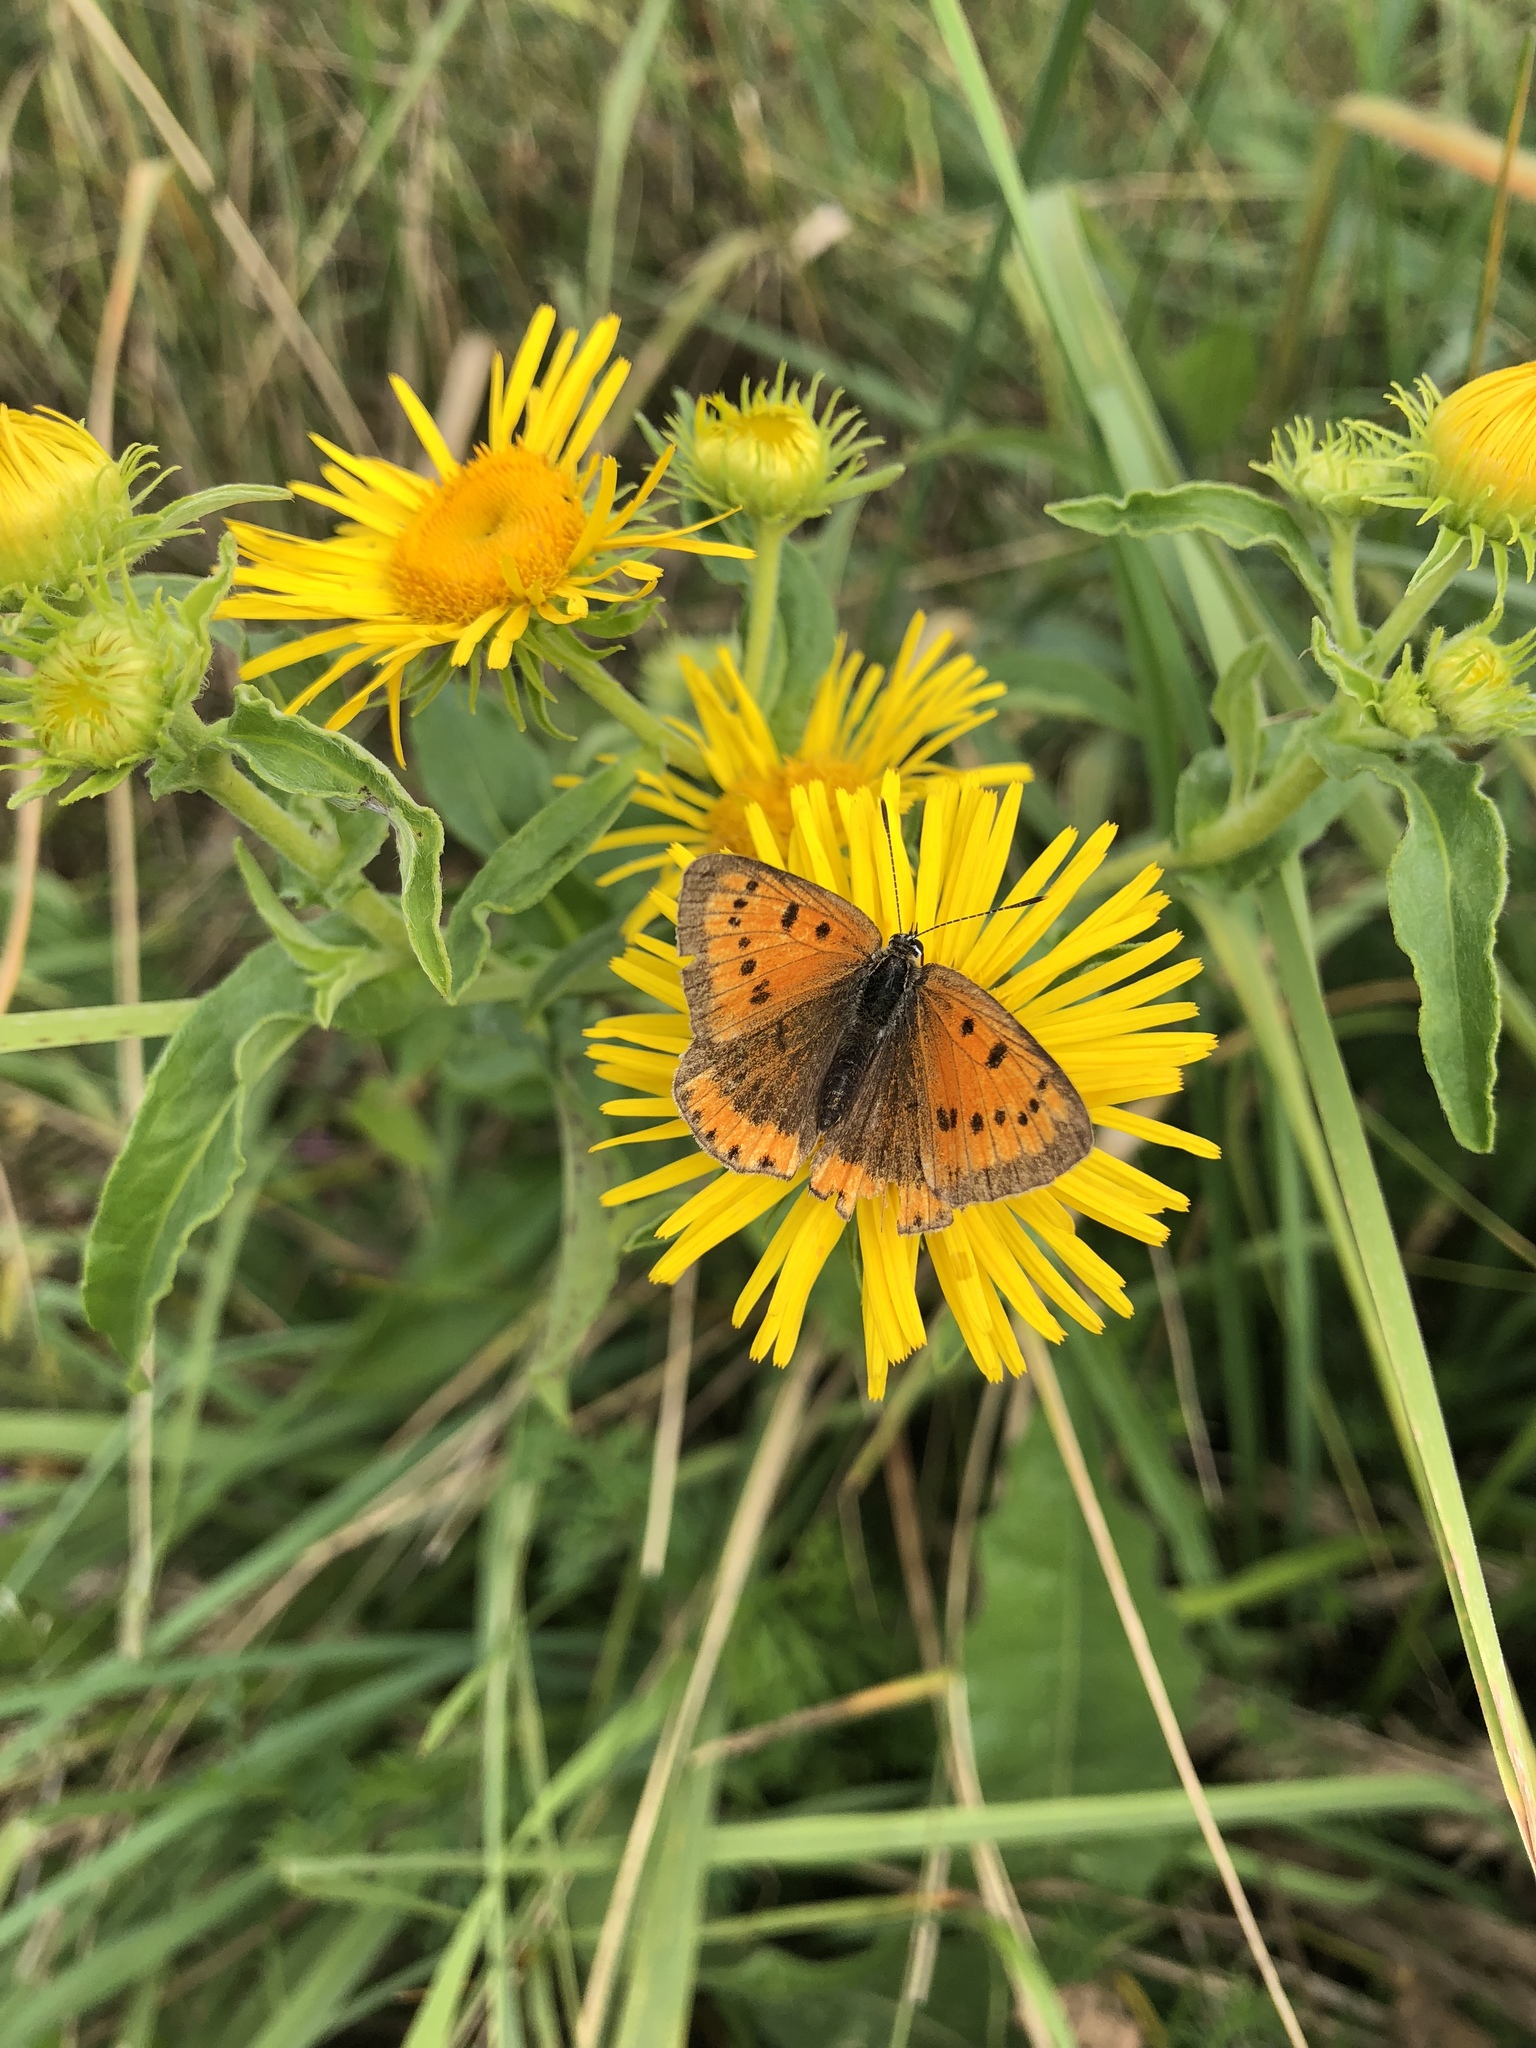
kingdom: Animalia
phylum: Arthropoda
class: Insecta
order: Lepidoptera
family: Lycaenidae
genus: Lycaena
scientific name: Lycaena dispar
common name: Large copper
